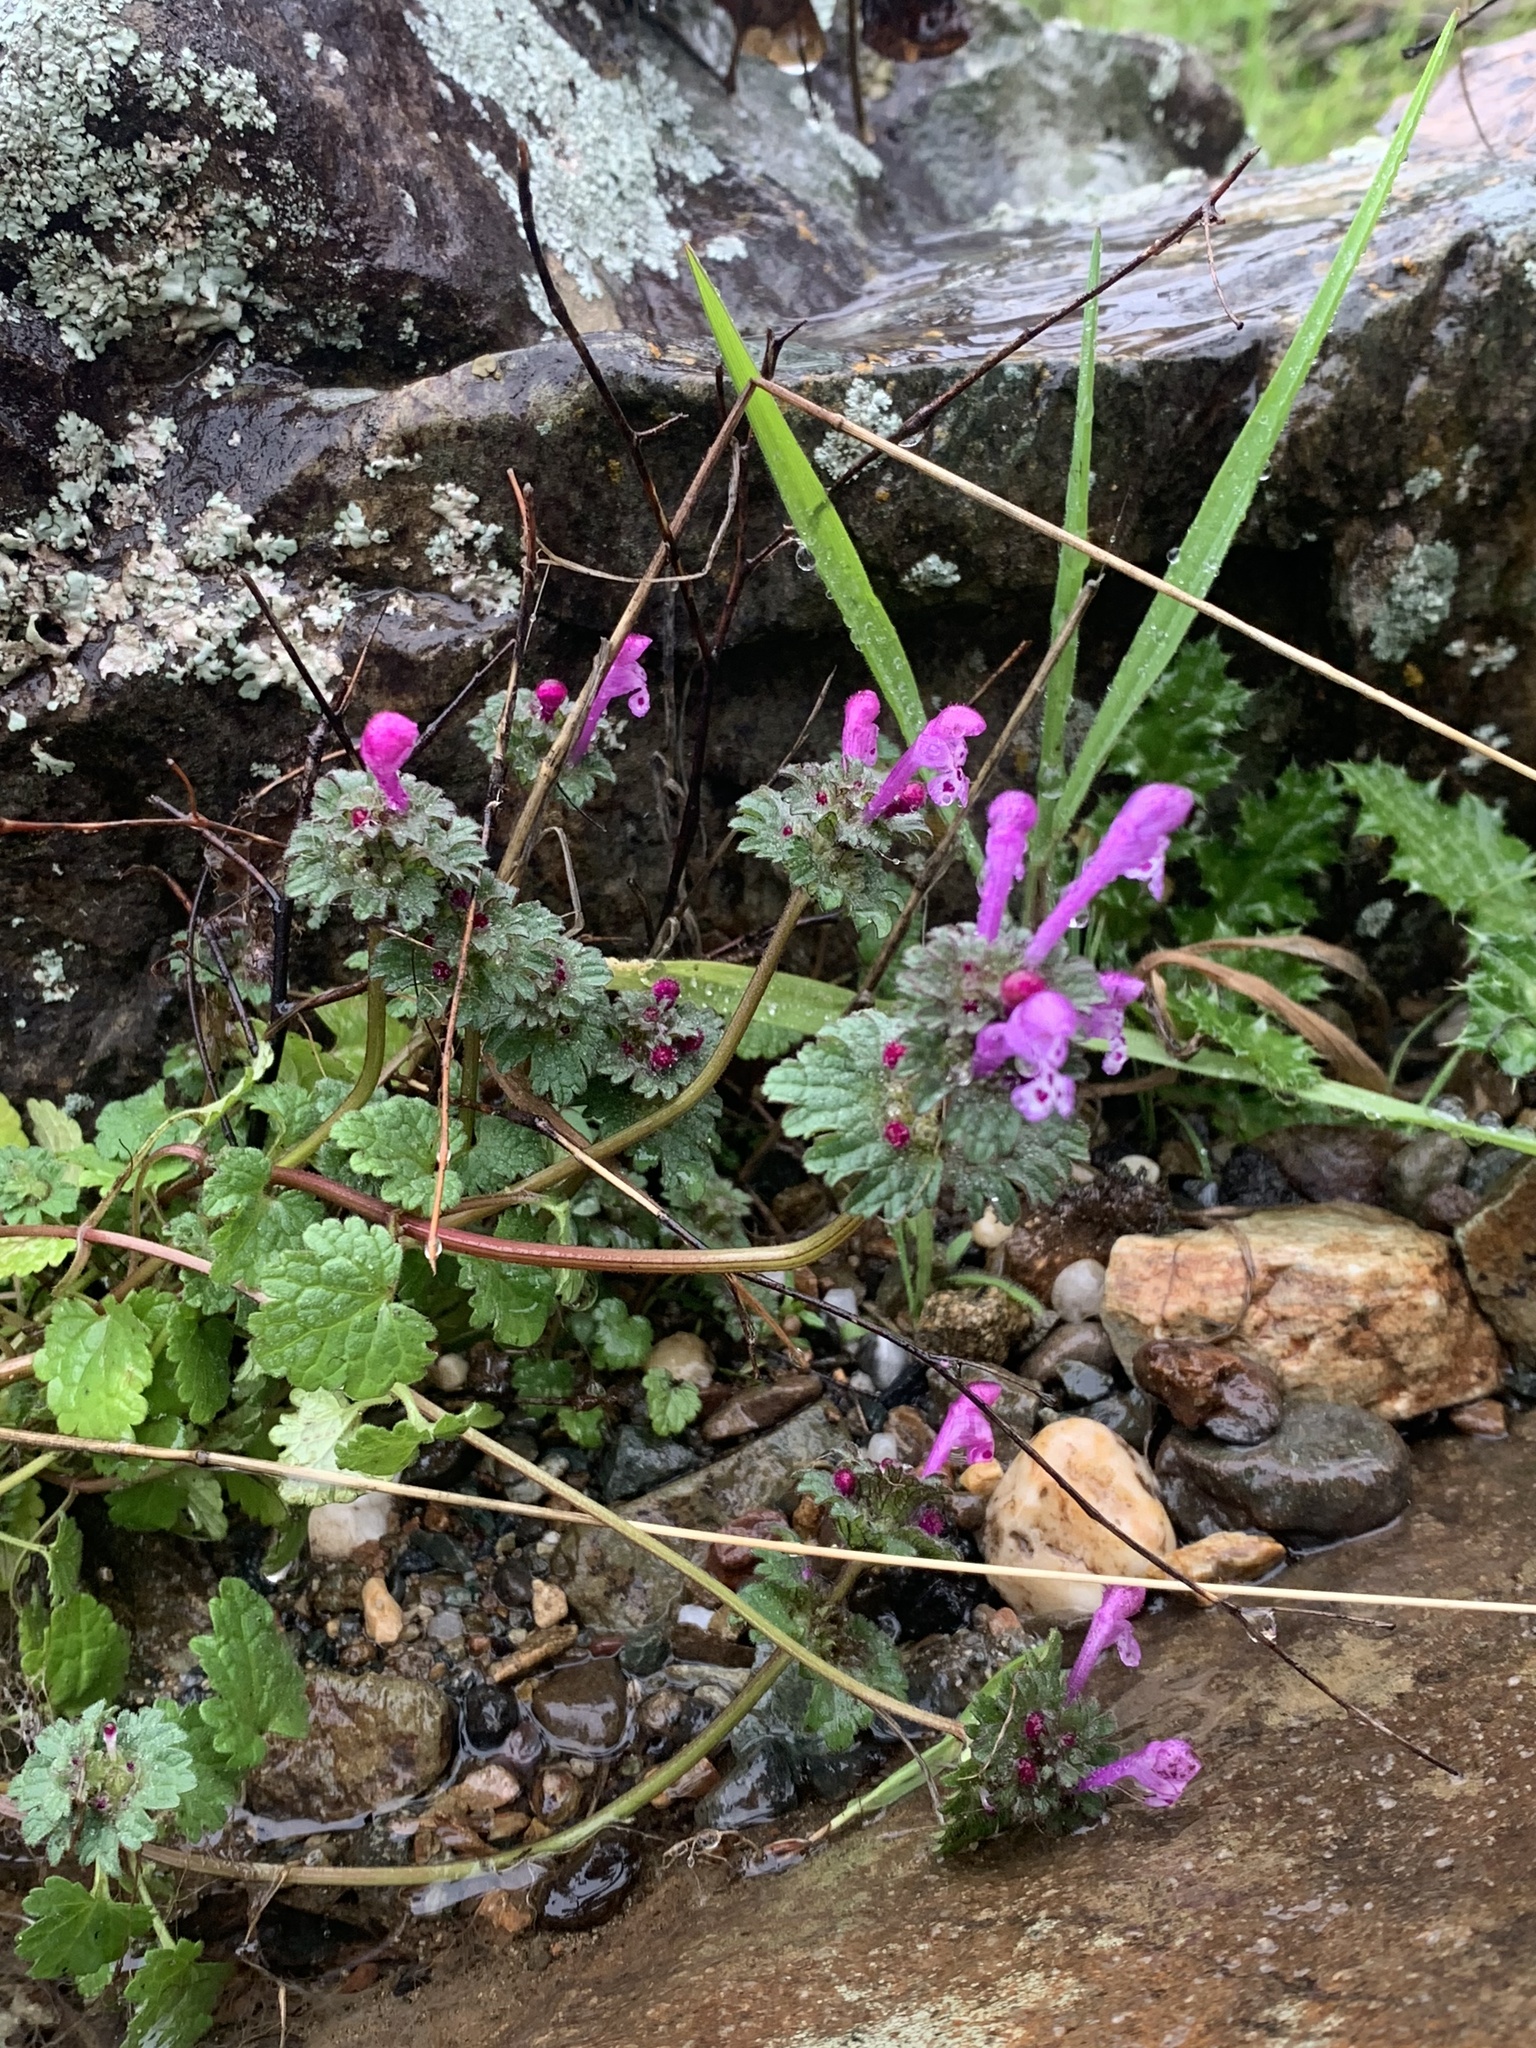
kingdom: Plantae
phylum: Tracheophyta
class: Magnoliopsida
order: Lamiales
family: Lamiaceae
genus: Lamium
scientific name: Lamium amplexicaule
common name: Henbit dead-nettle
